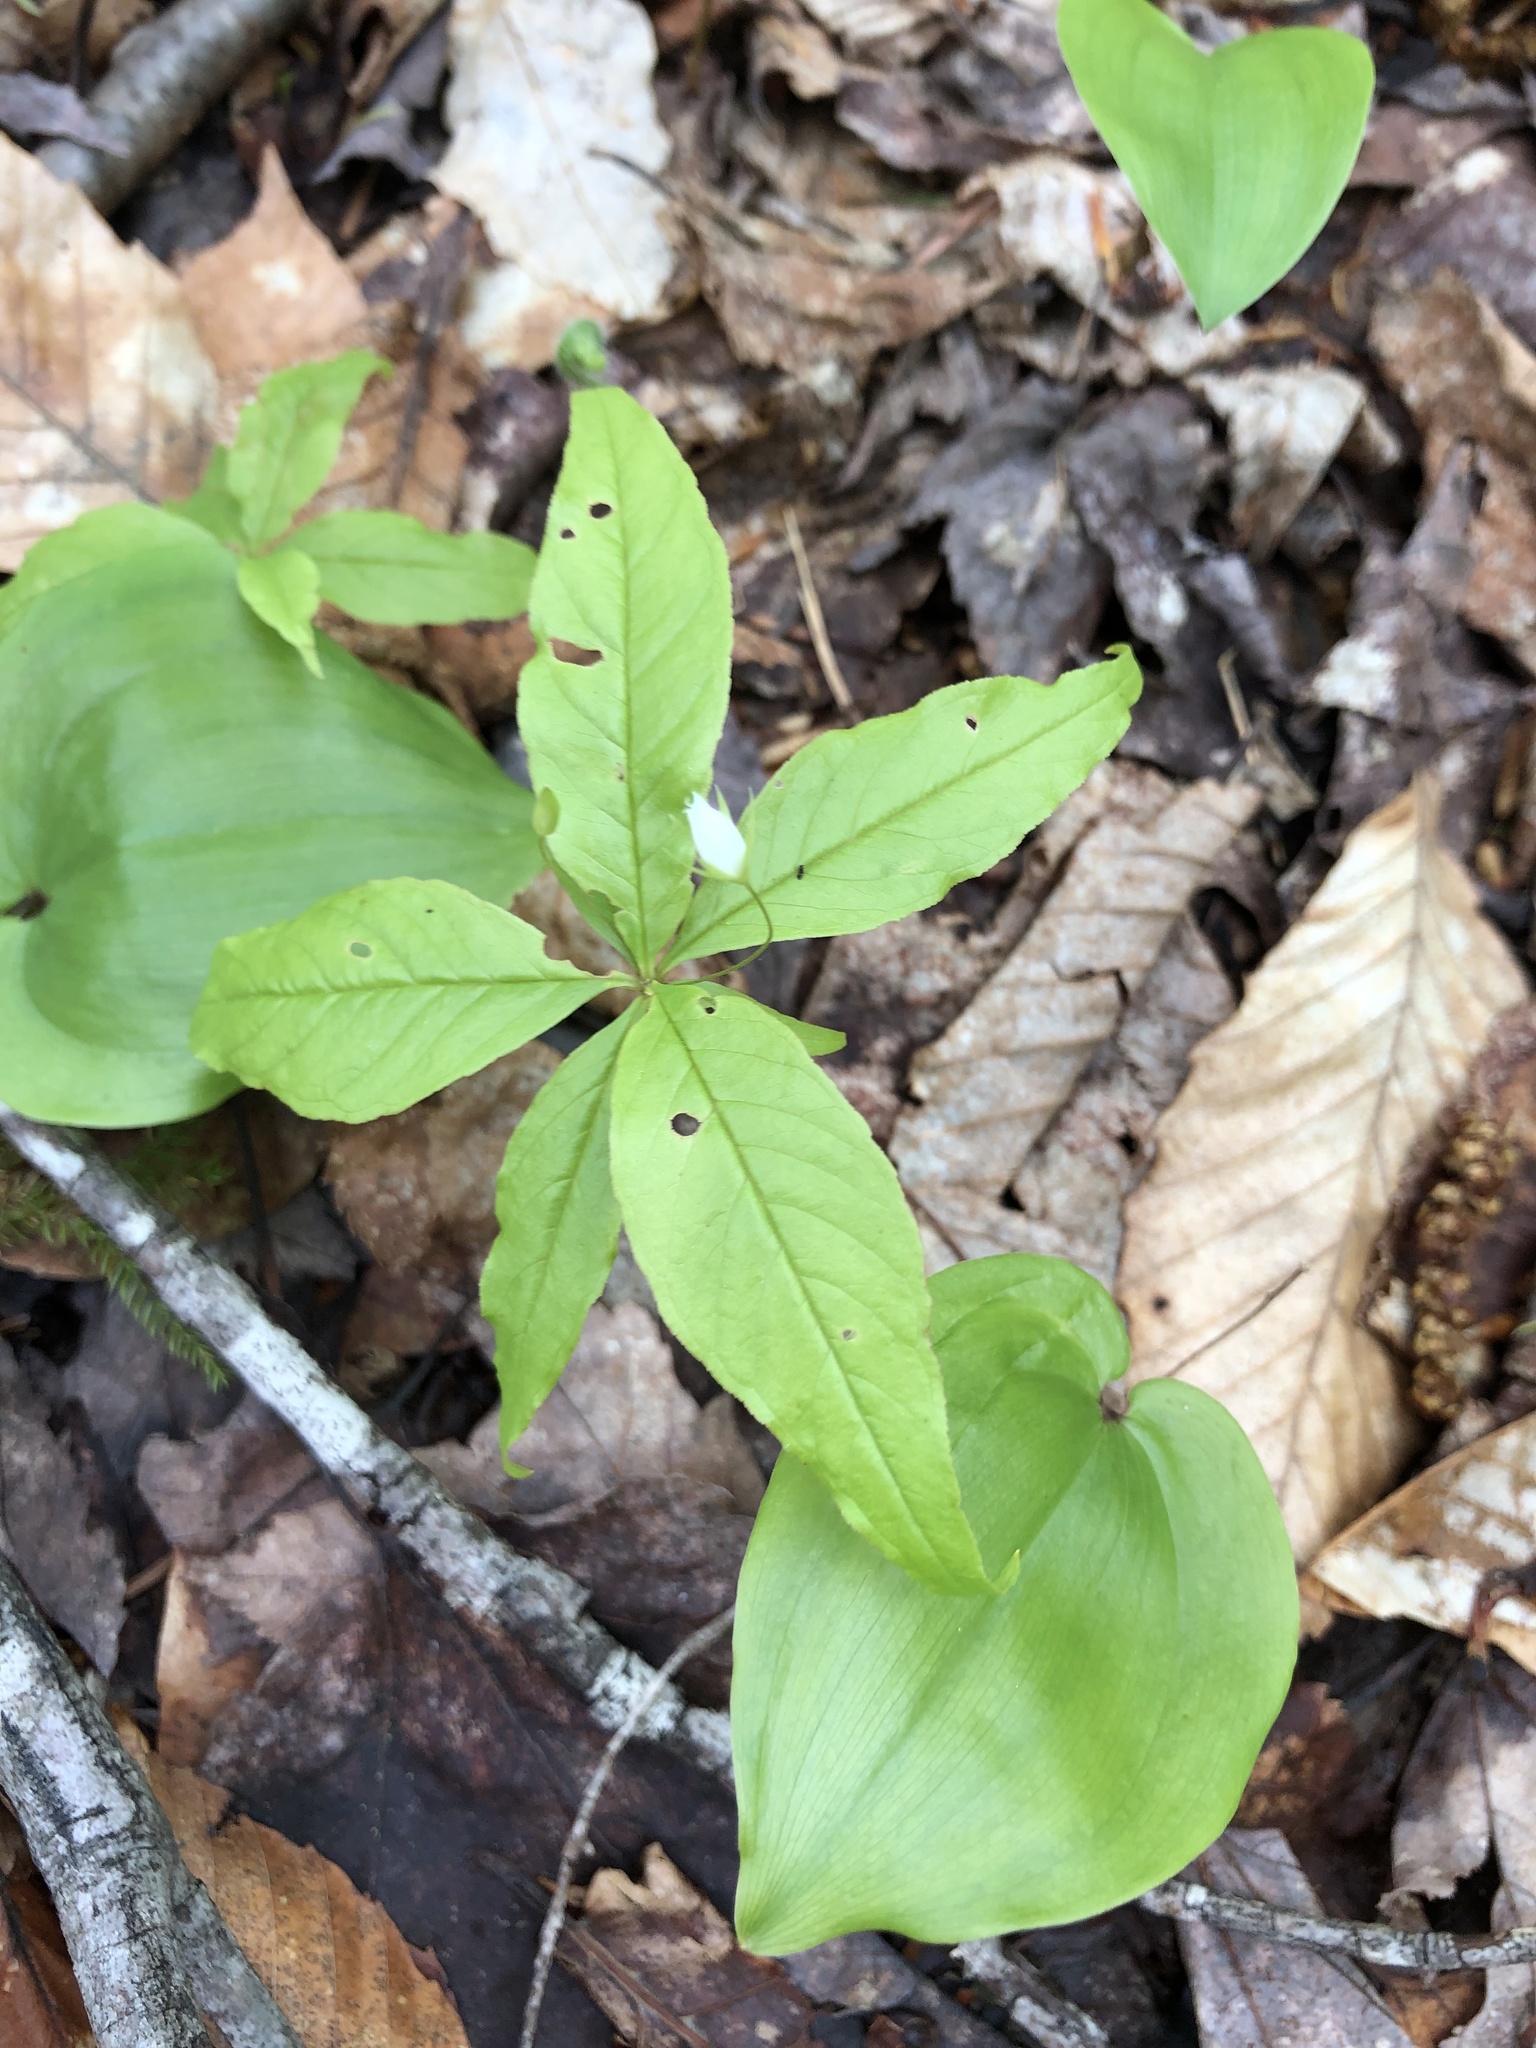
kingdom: Plantae
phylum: Tracheophyta
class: Magnoliopsida
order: Ericales
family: Primulaceae
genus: Lysimachia
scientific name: Lysimachia borealis
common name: American starflower
